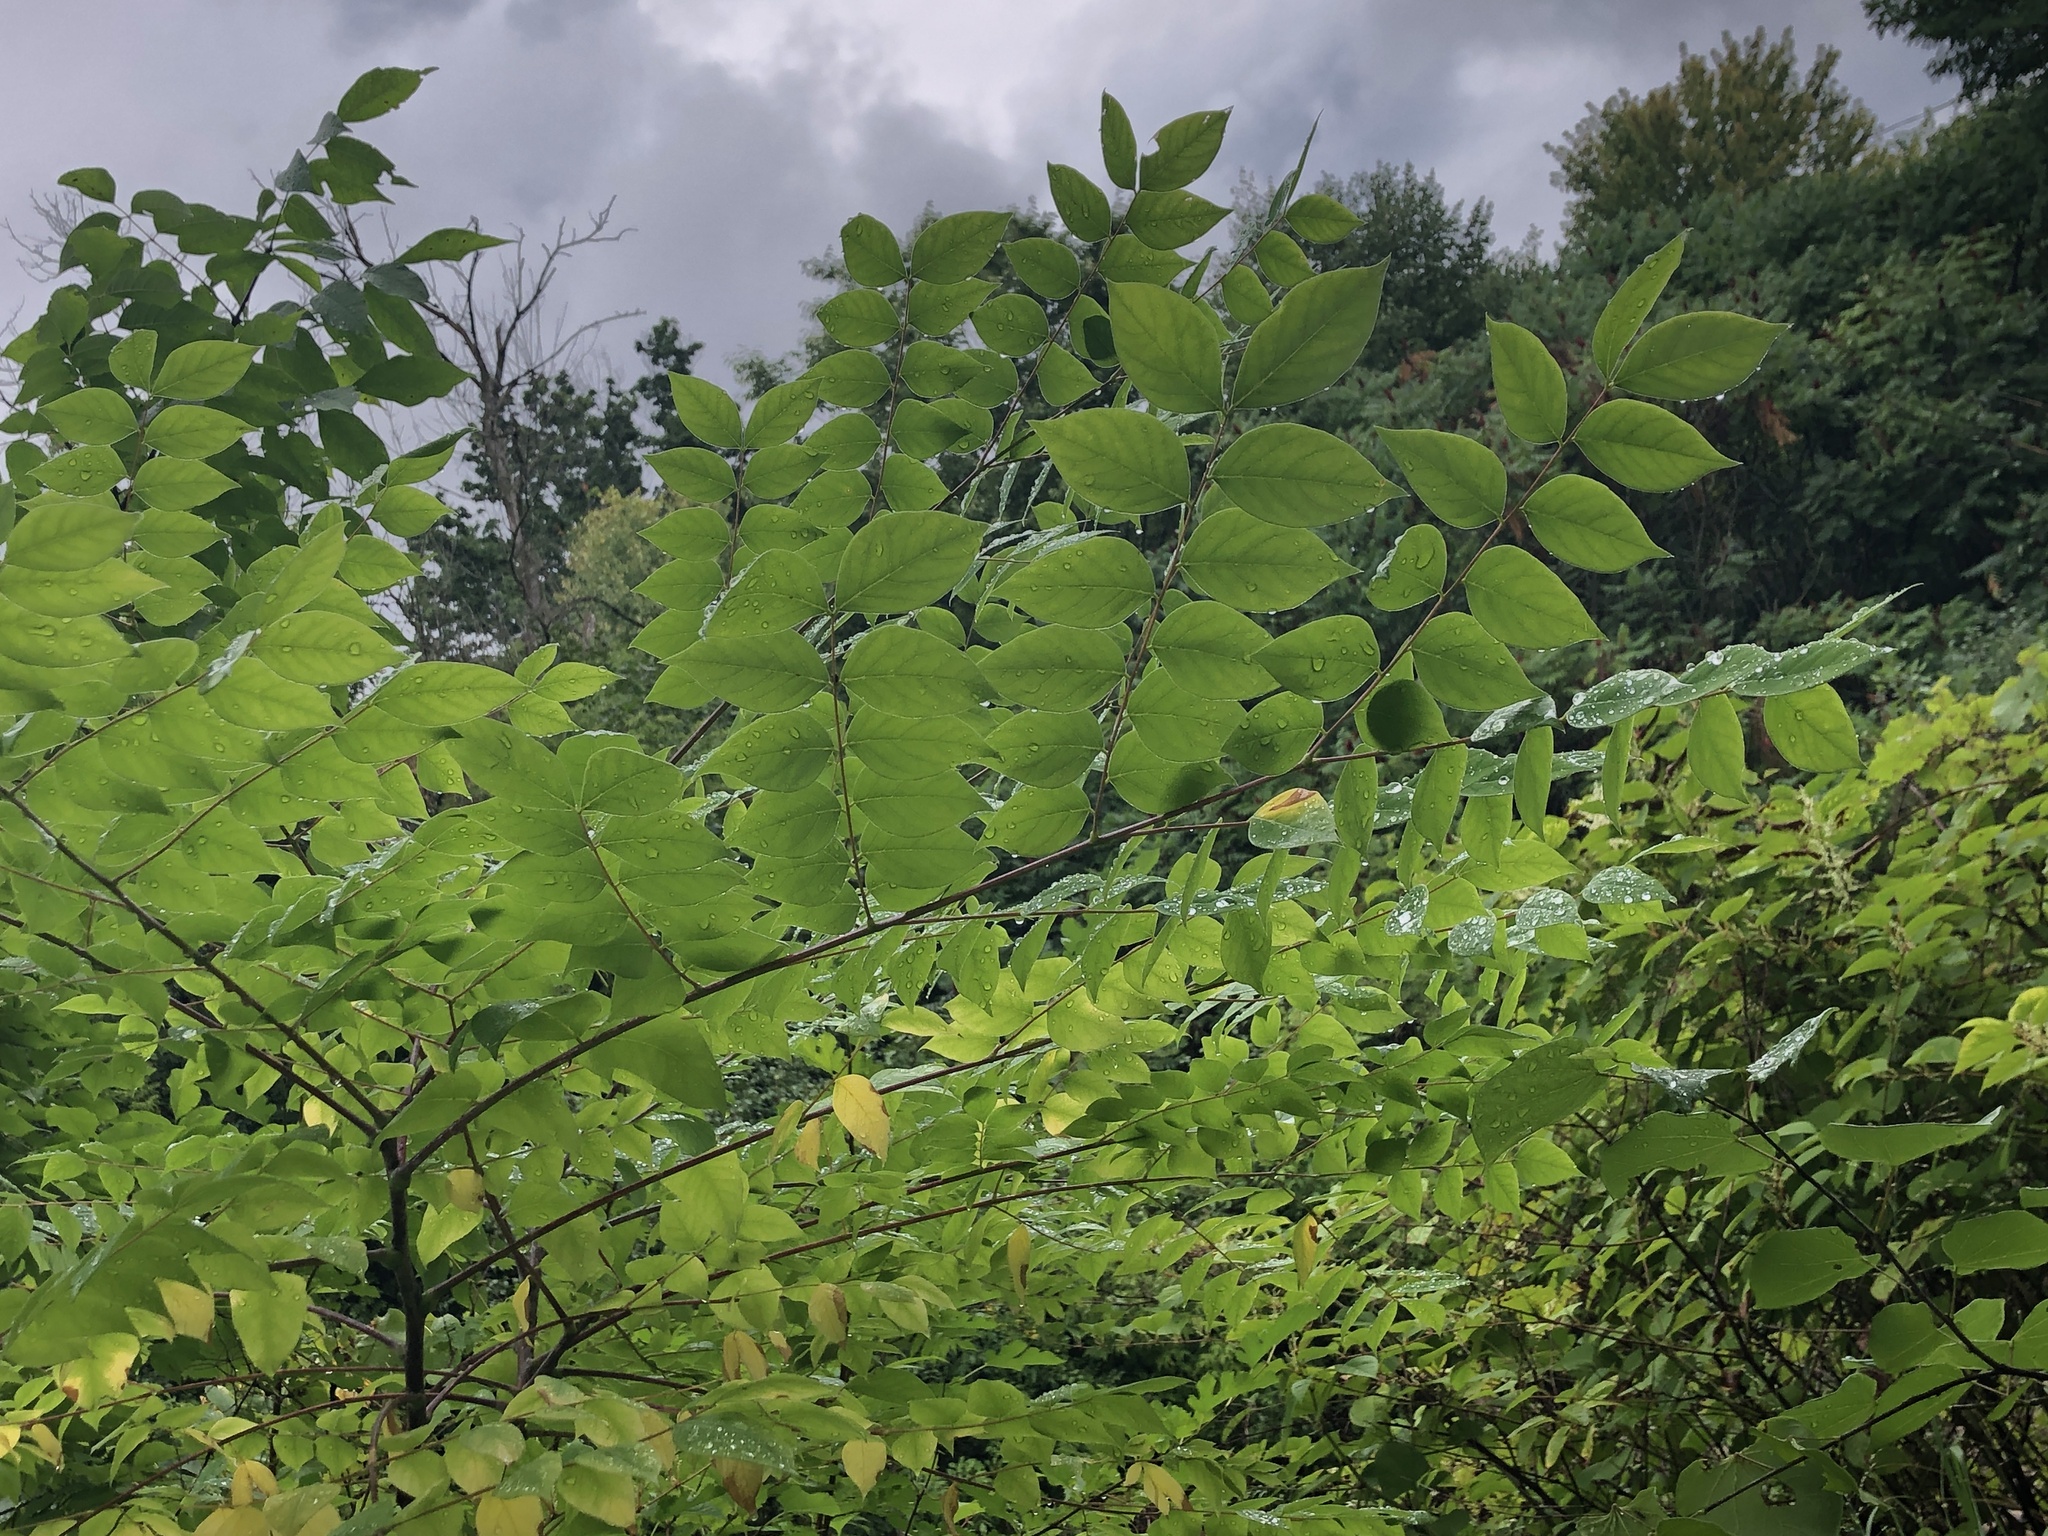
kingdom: Plantae
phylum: Tracheophyta
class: Magnoliopsida
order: Fabales
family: Fabaceae
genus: Gymnocladus
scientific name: Gymnocladus dioicus
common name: Kentucky coffee-tree
